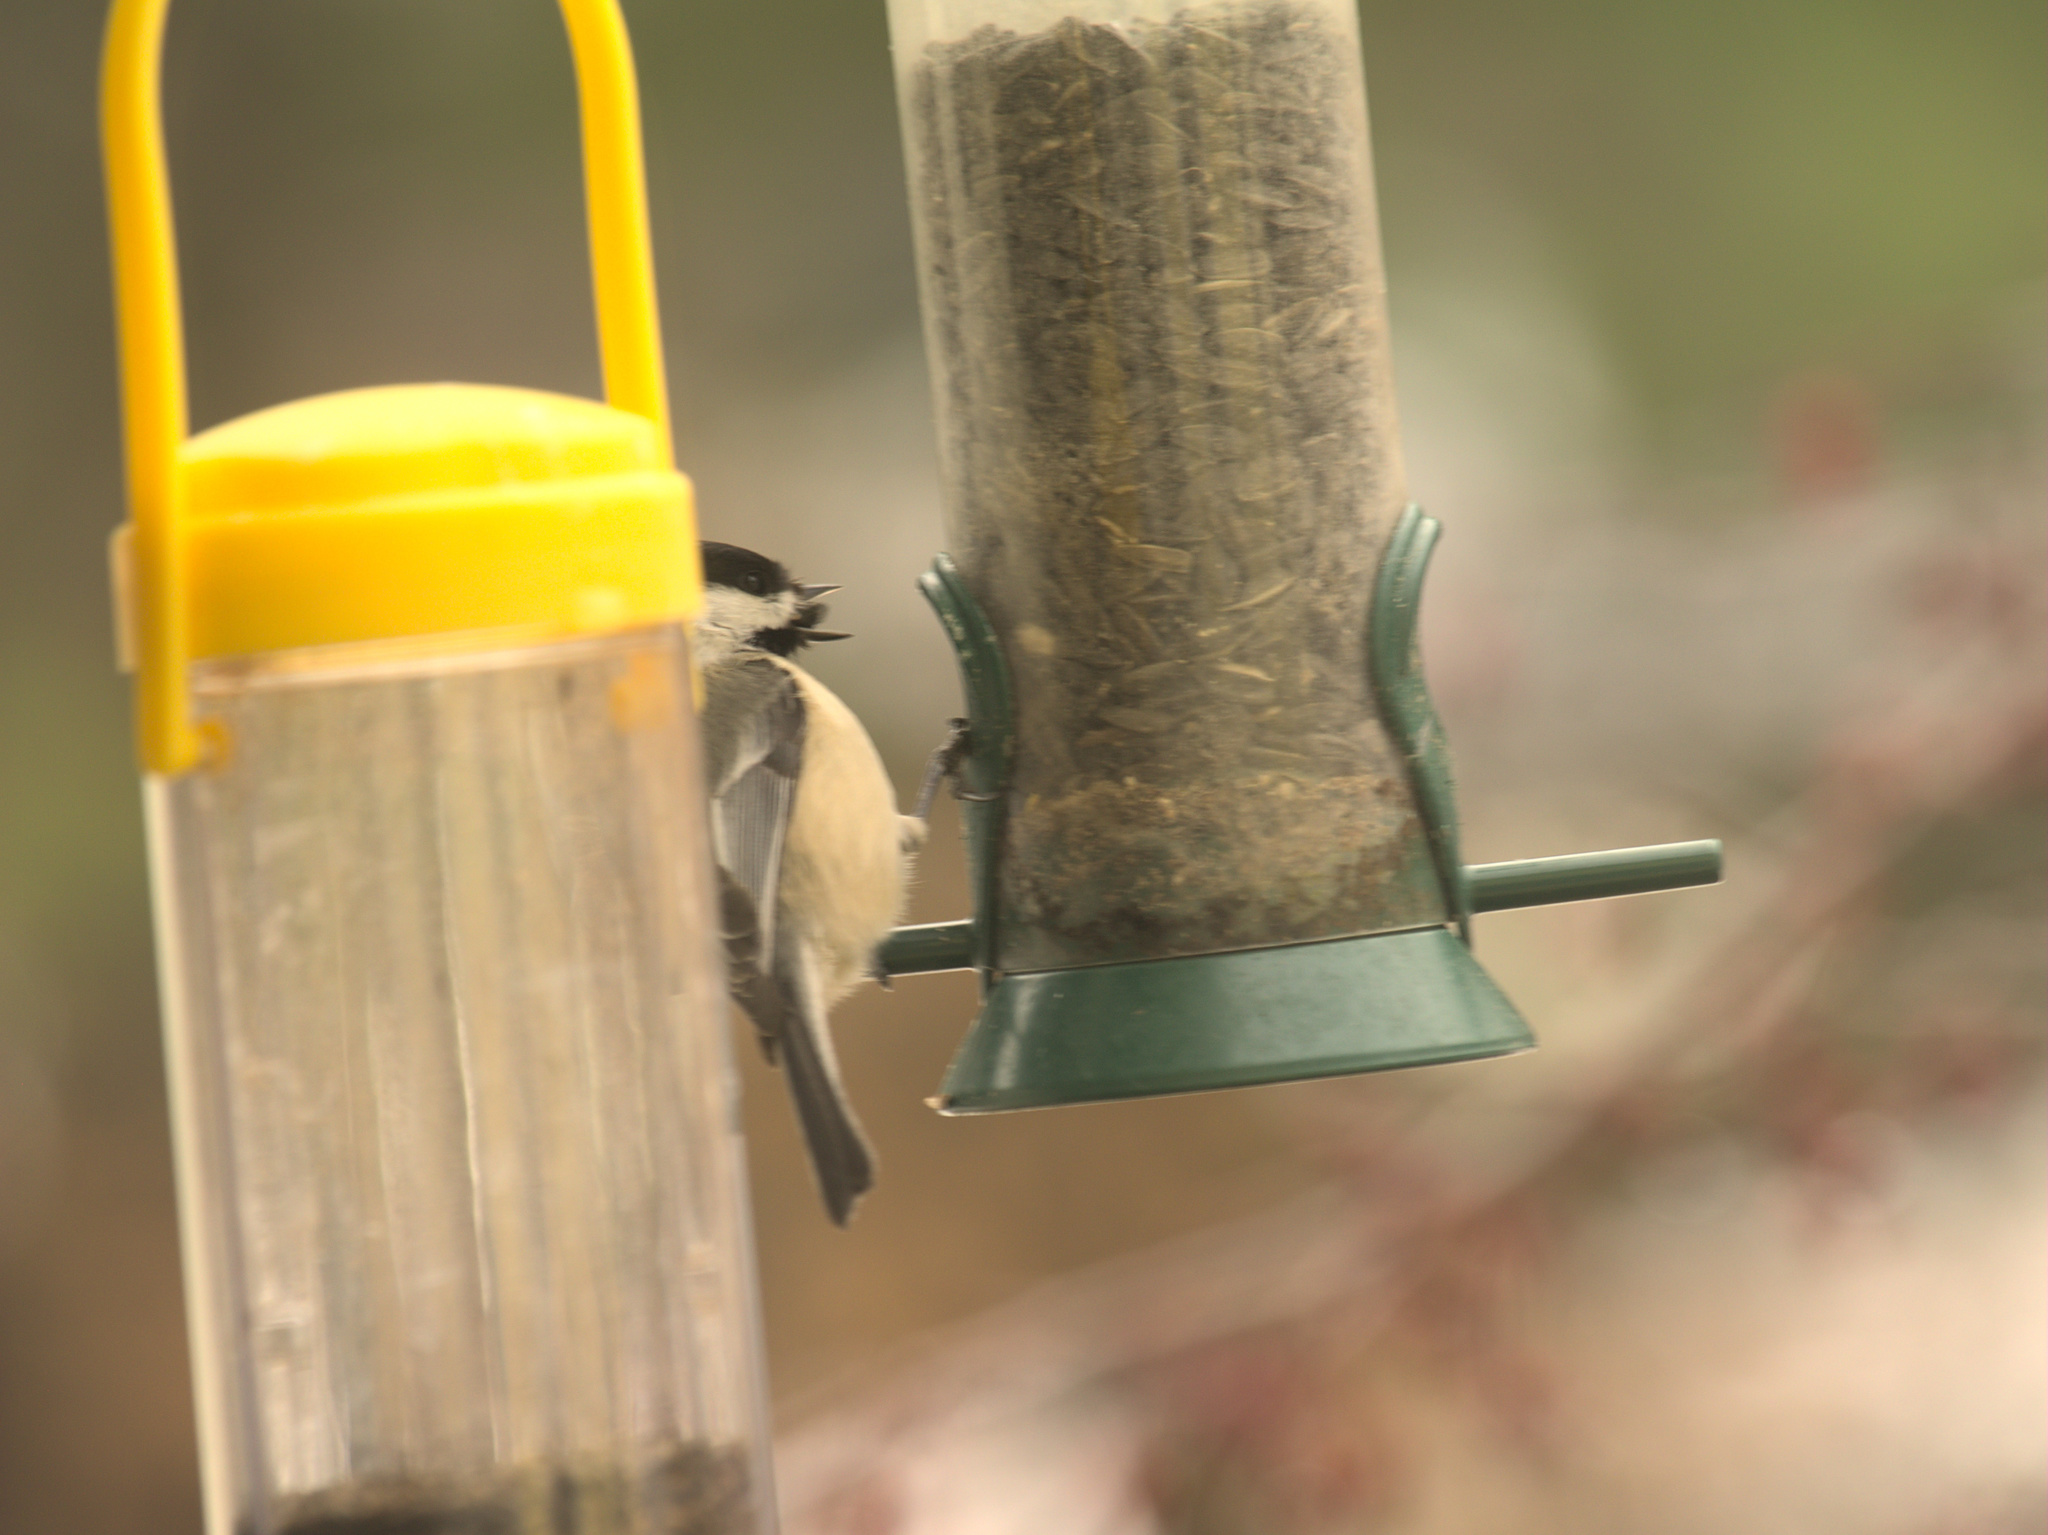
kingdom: Animalia
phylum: Chordata
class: Aves
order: Passeriformes
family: Paridae
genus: Poecile
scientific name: Poecile atricapillus
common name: Black-capped chickadee
